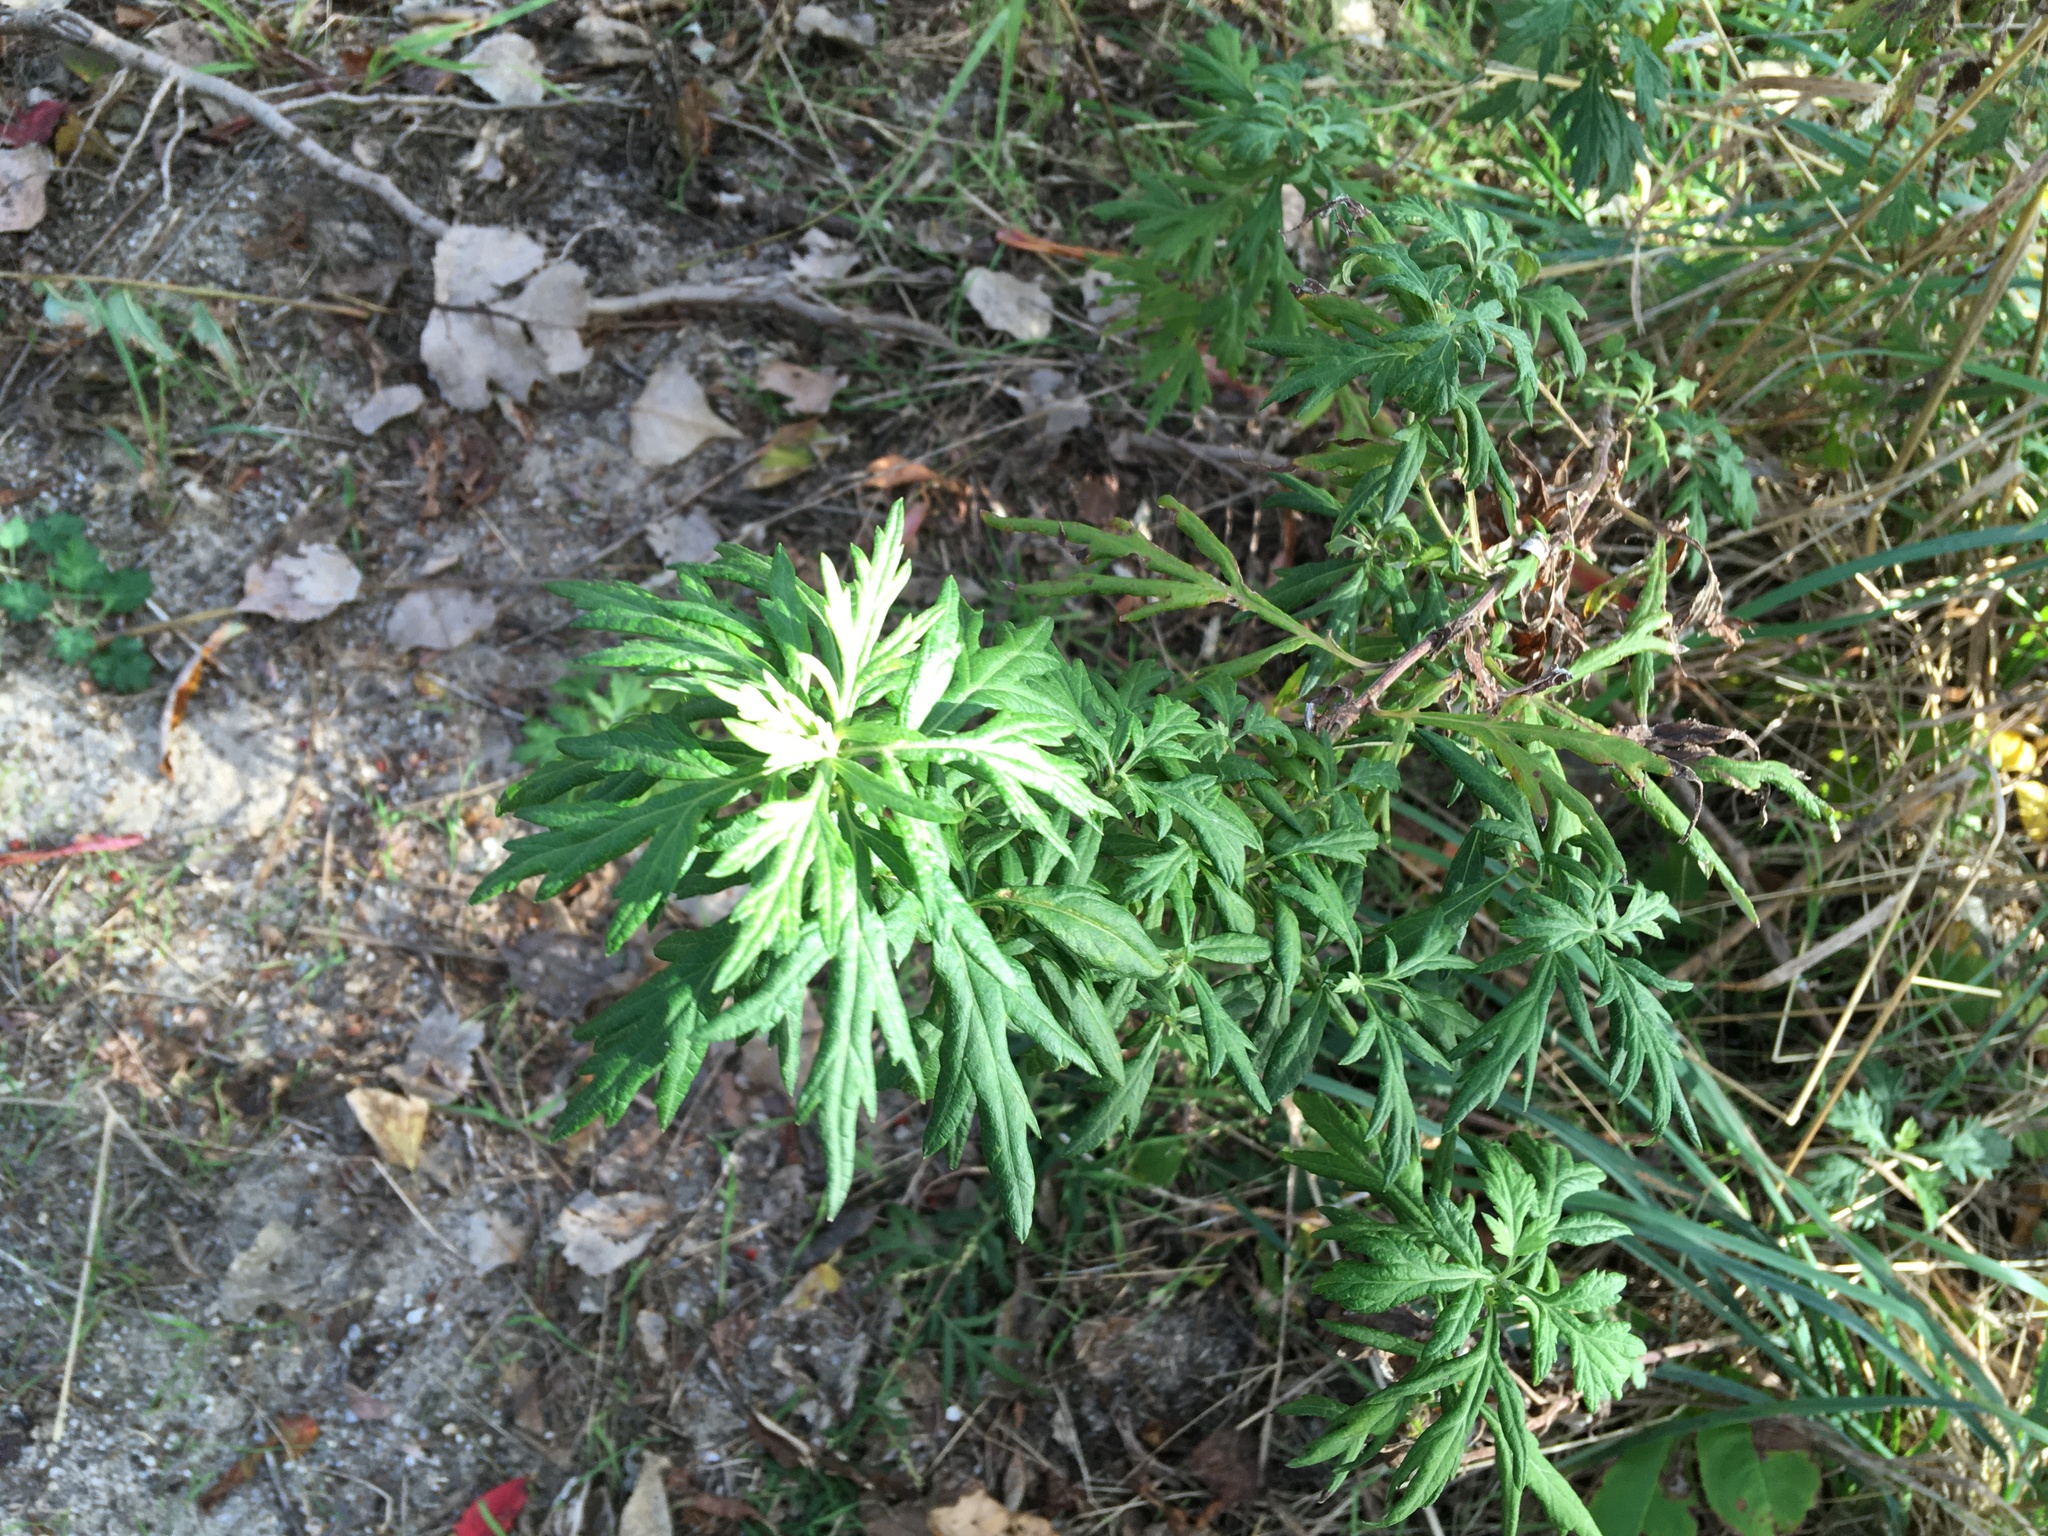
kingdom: Plantae
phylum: Tracheophyta
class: Magnoliopsida
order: Asterales
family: Asteraceae
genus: Artemisia
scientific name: Artemisia vulgaris
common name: Mugwort
